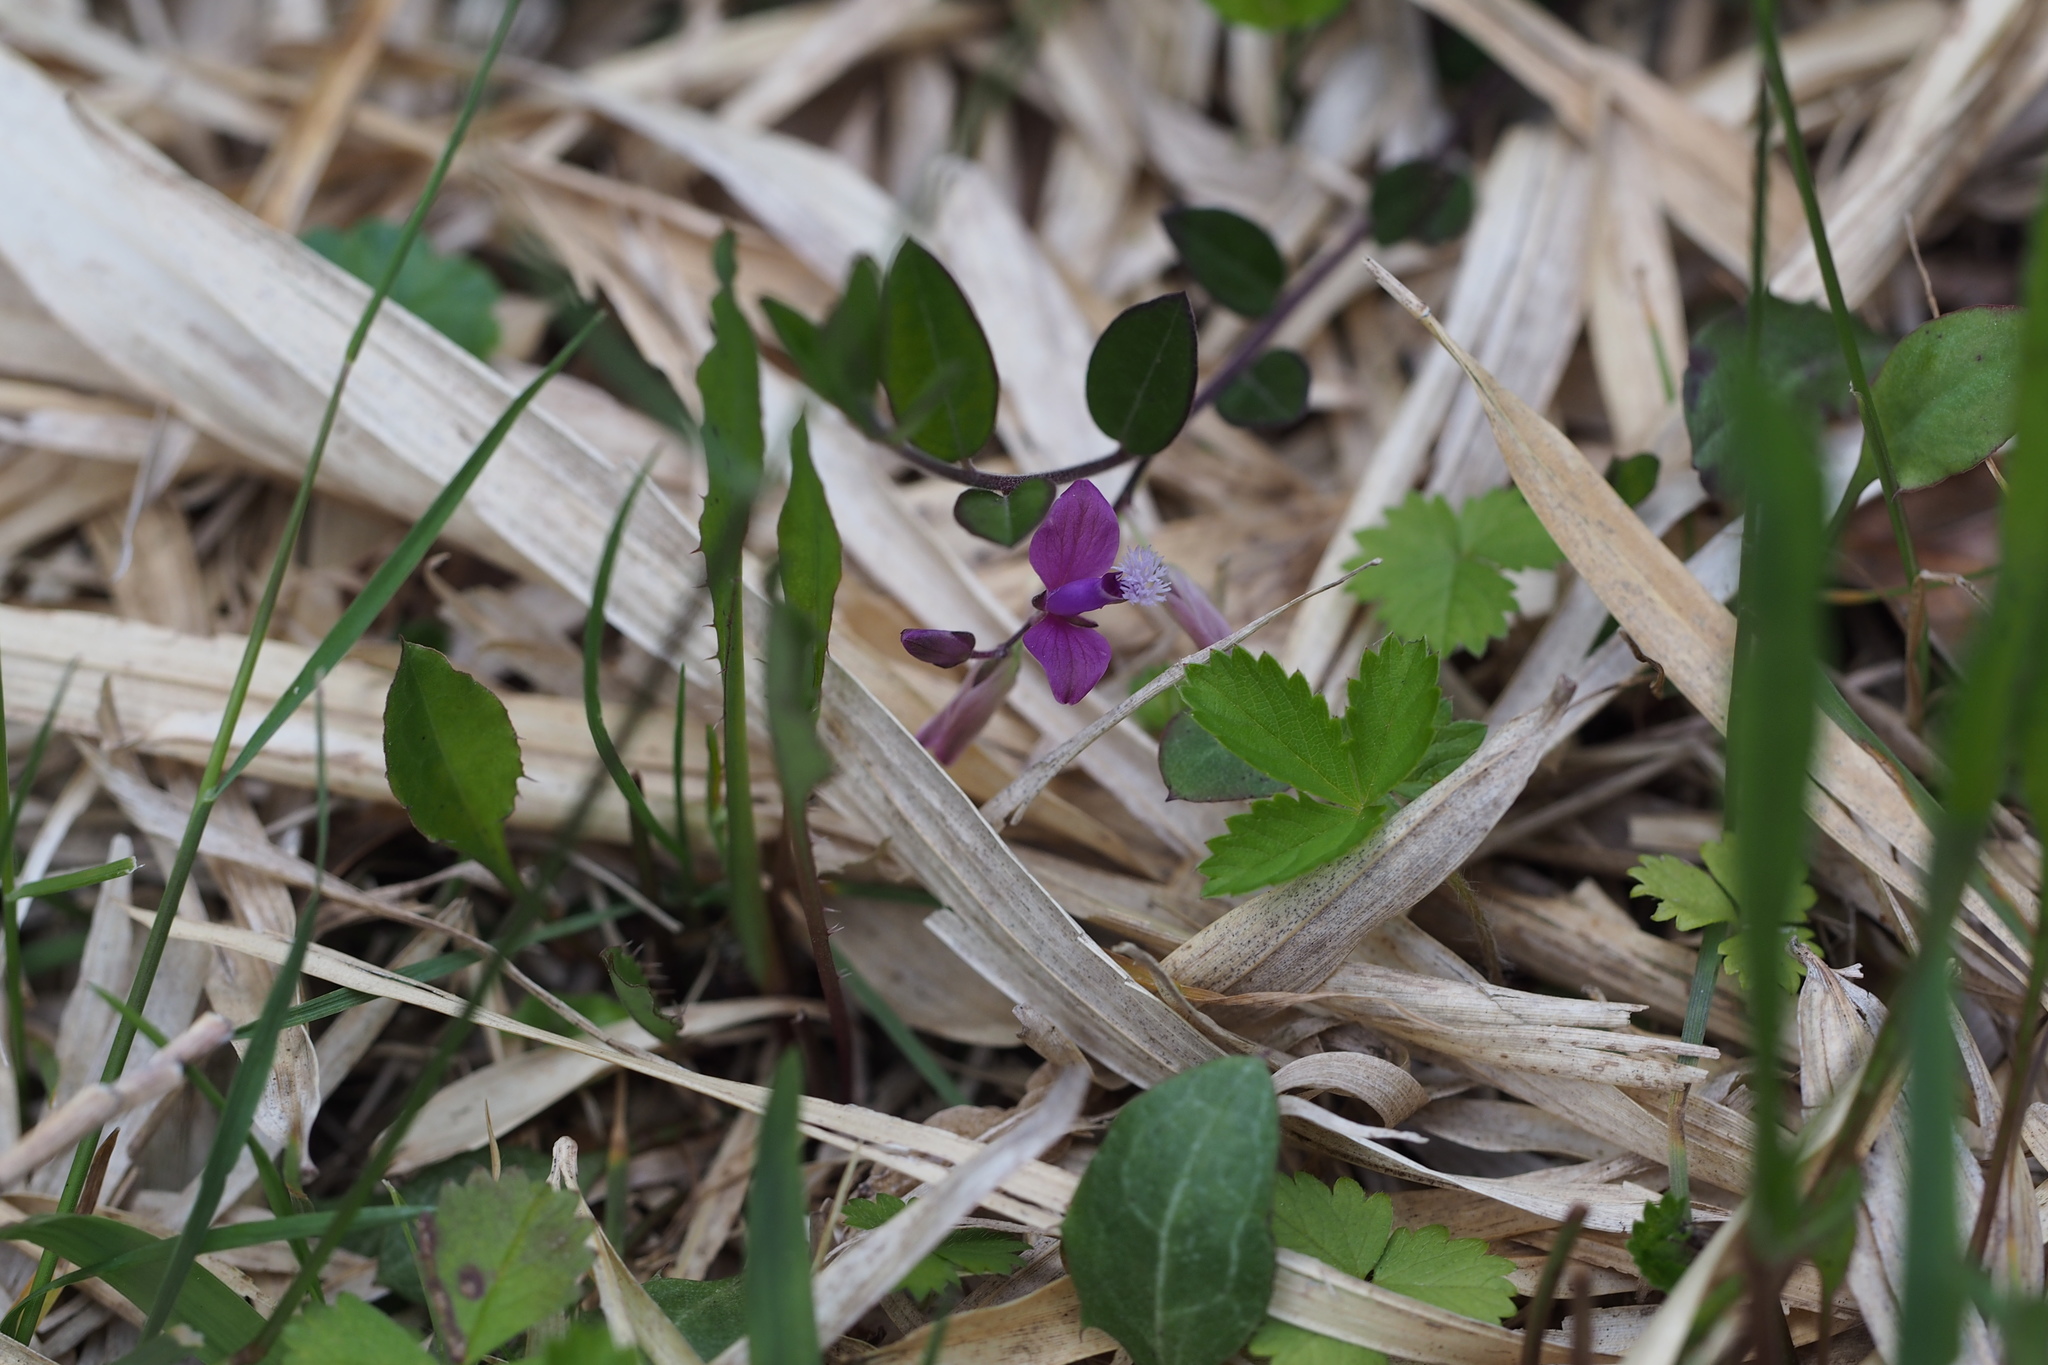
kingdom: Plantae
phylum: Tracheophyta
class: Magnoliopsida
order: Fabales
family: Polygalaceae
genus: Polygala
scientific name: Polygala japonica
